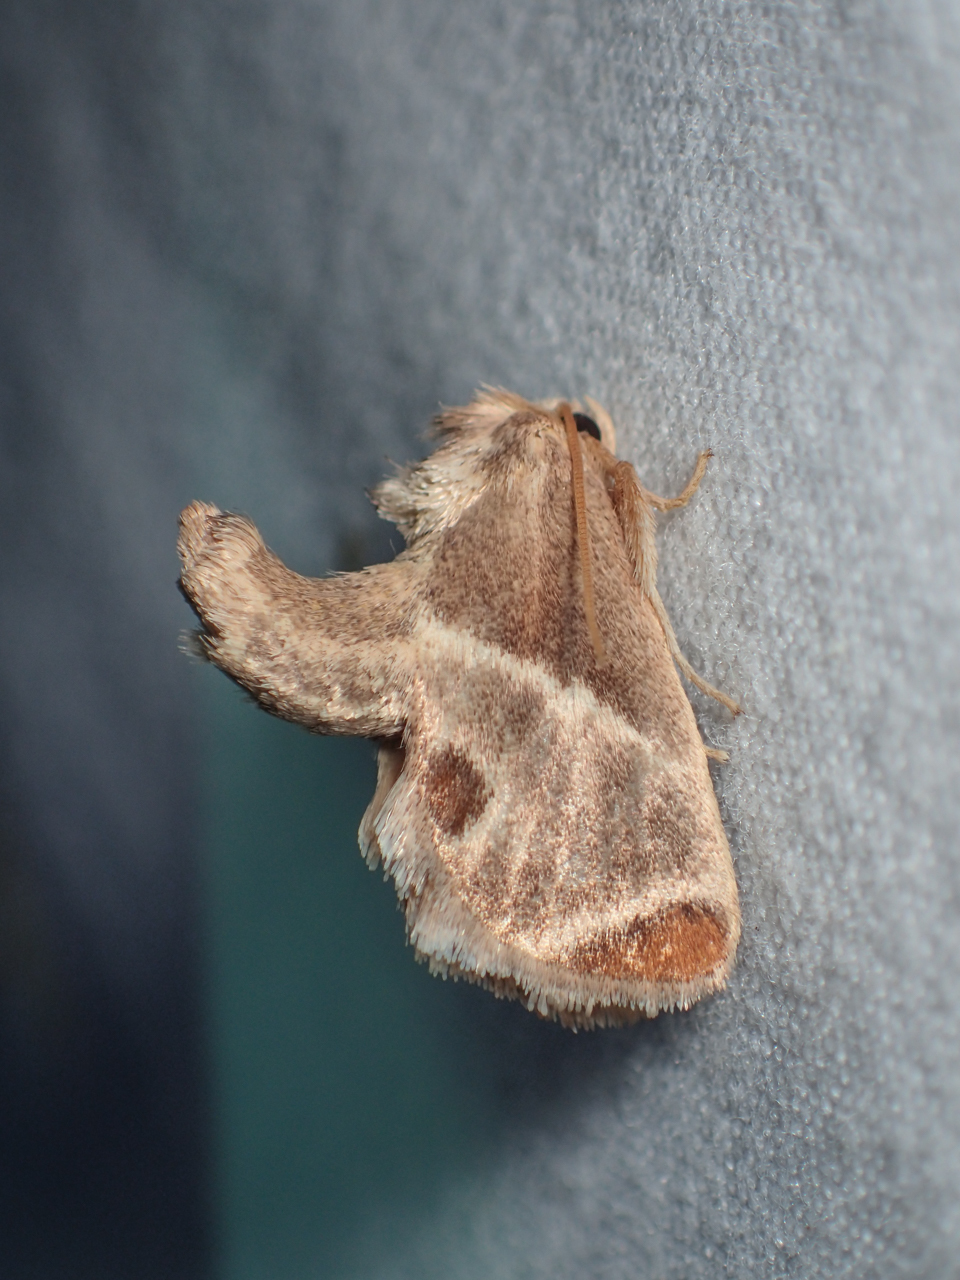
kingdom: Animalia
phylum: Arthropoda
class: Insecta
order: Lepidoptera
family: Limacodidae
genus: Apoda
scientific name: Apoda biguttata
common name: Shagreened slug moth
